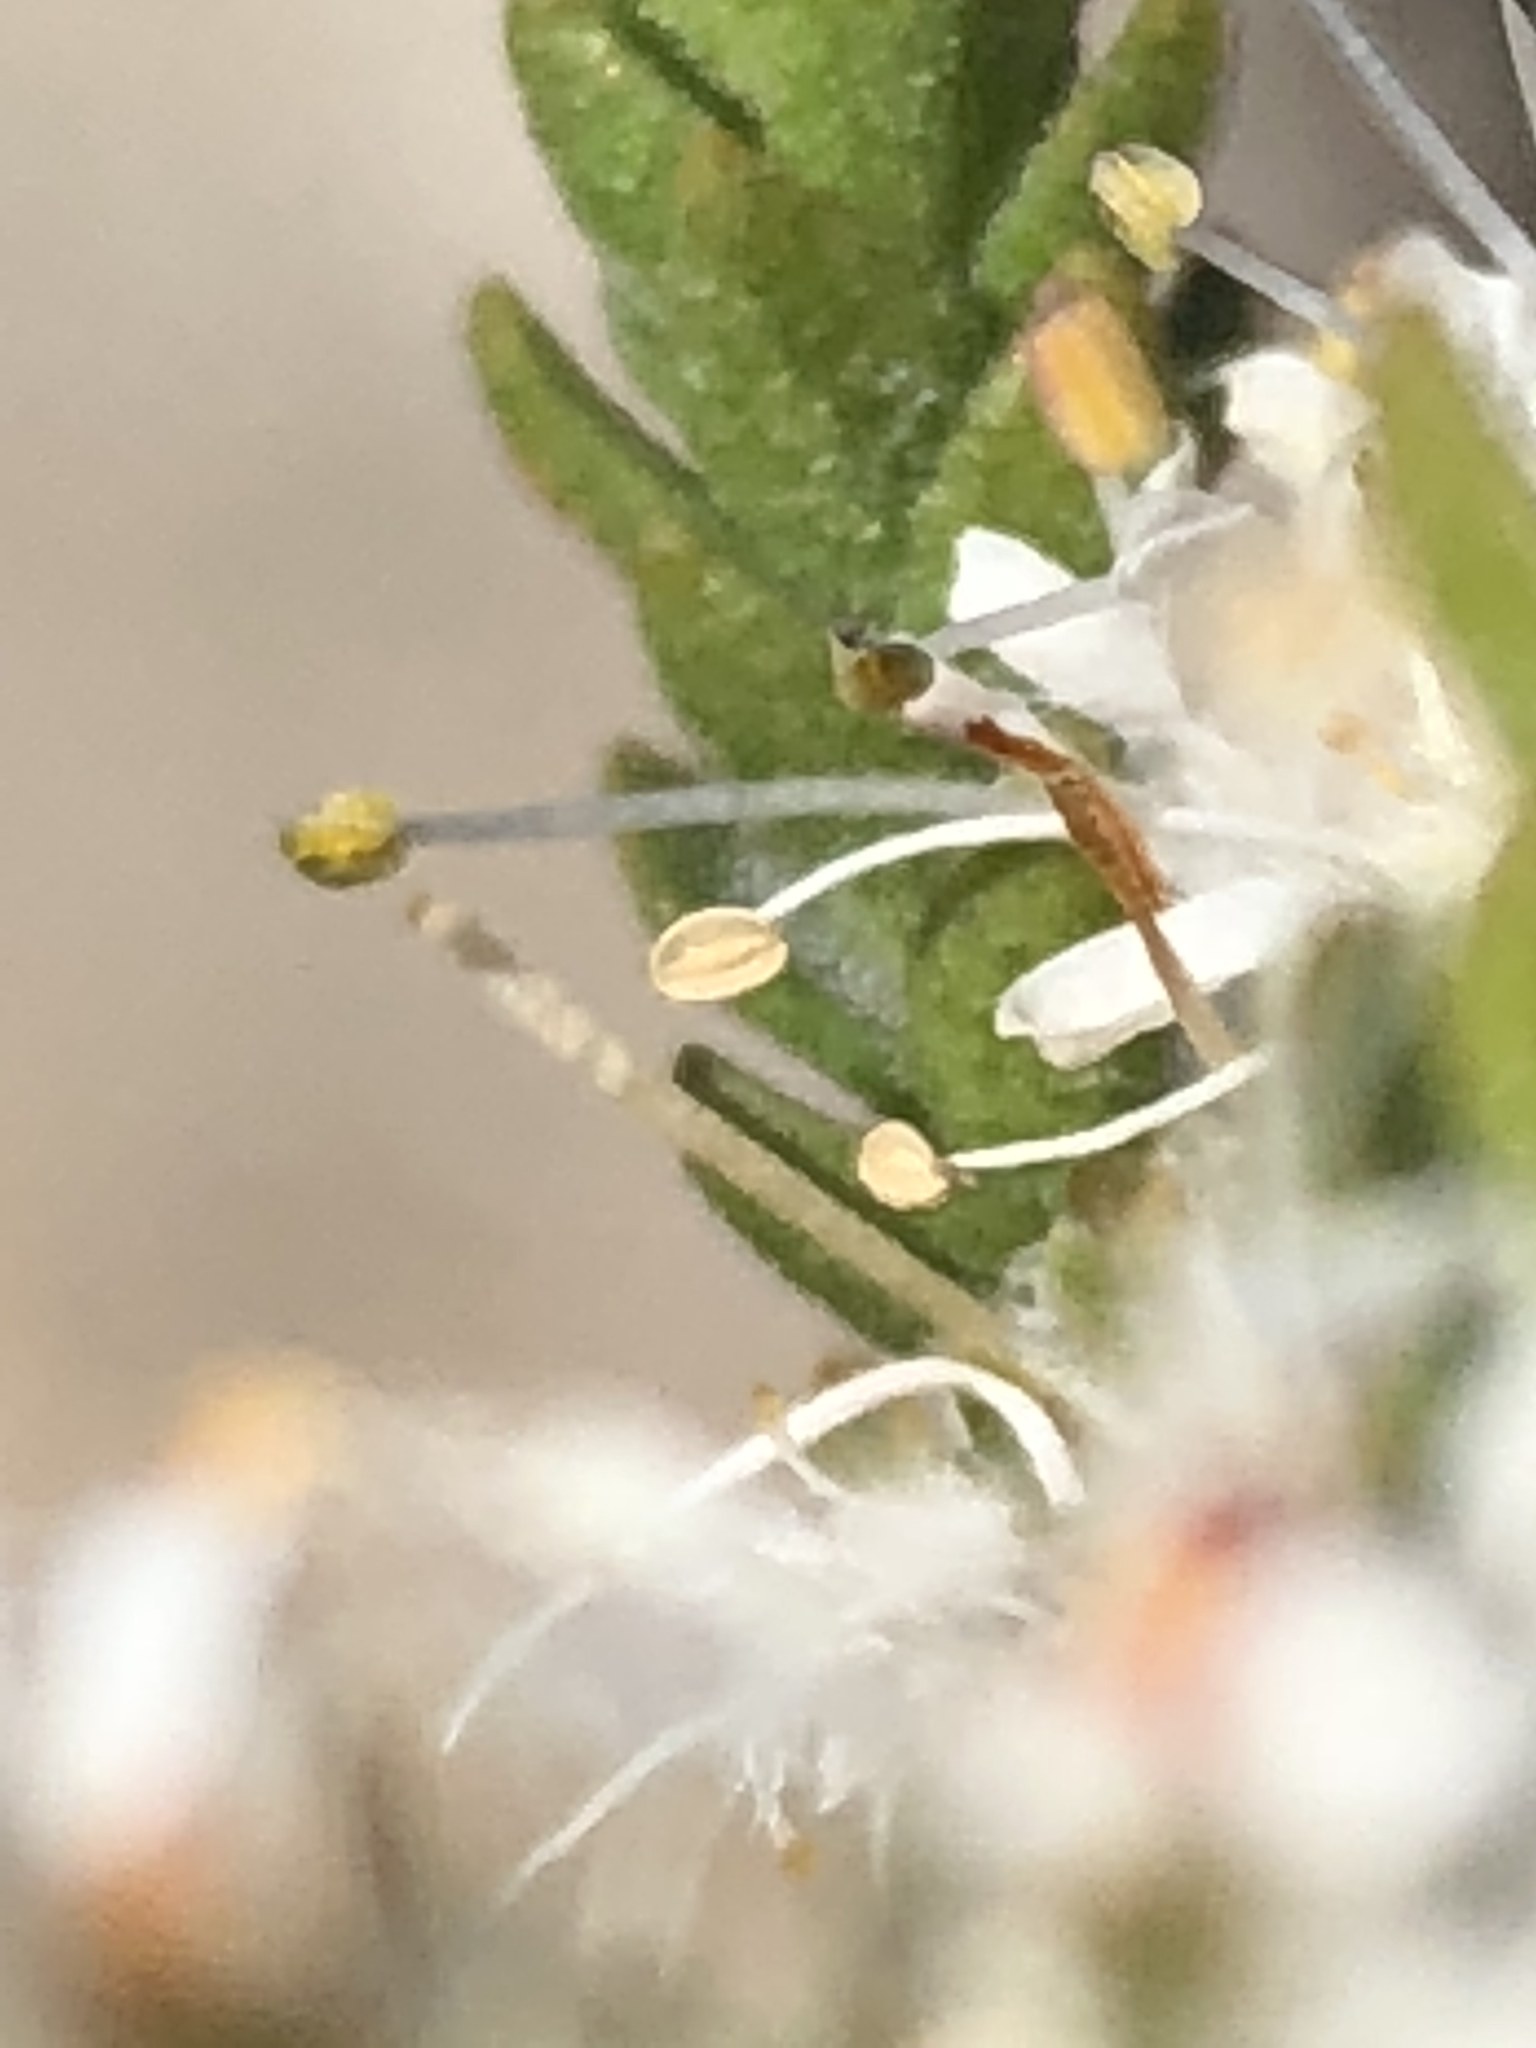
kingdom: Plantae
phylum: Tracheophyta
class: Magnoliopsida
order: Sapindales
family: Rutaceae
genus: Agathosma
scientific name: Agathosma roodebergensis
